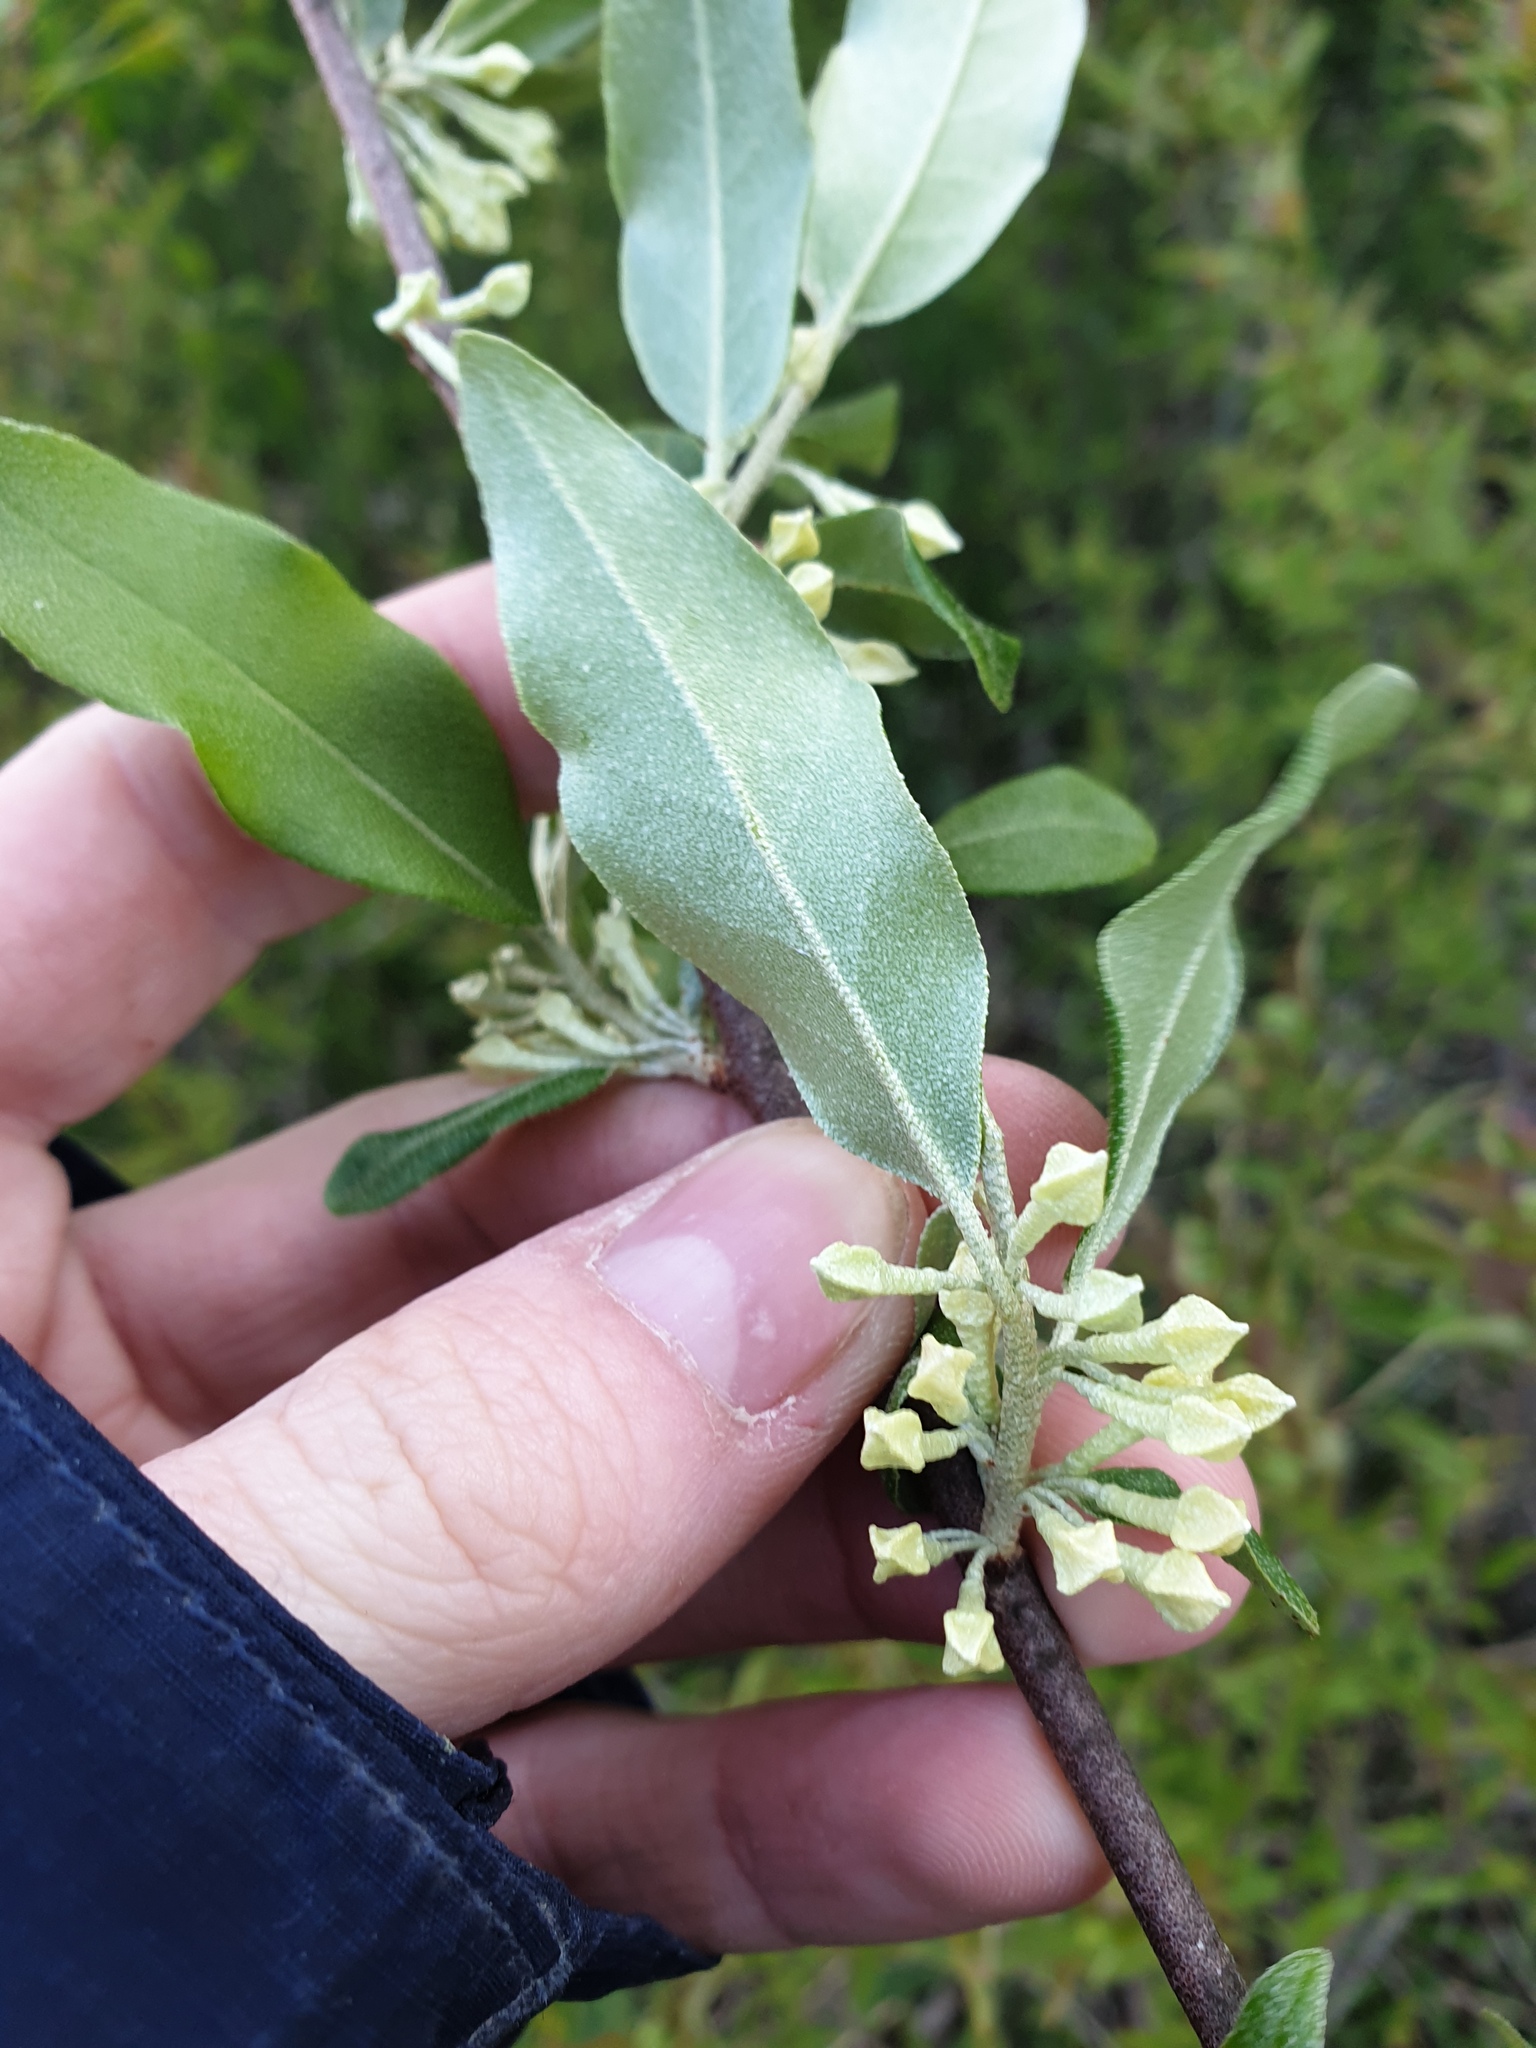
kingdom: Plantae
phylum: Tracheophyta
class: Magnoliopsida
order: Rosales
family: Elaeagnaceae
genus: Elaeagnus
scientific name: Elaeagnus umbellata
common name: Autumn olive
